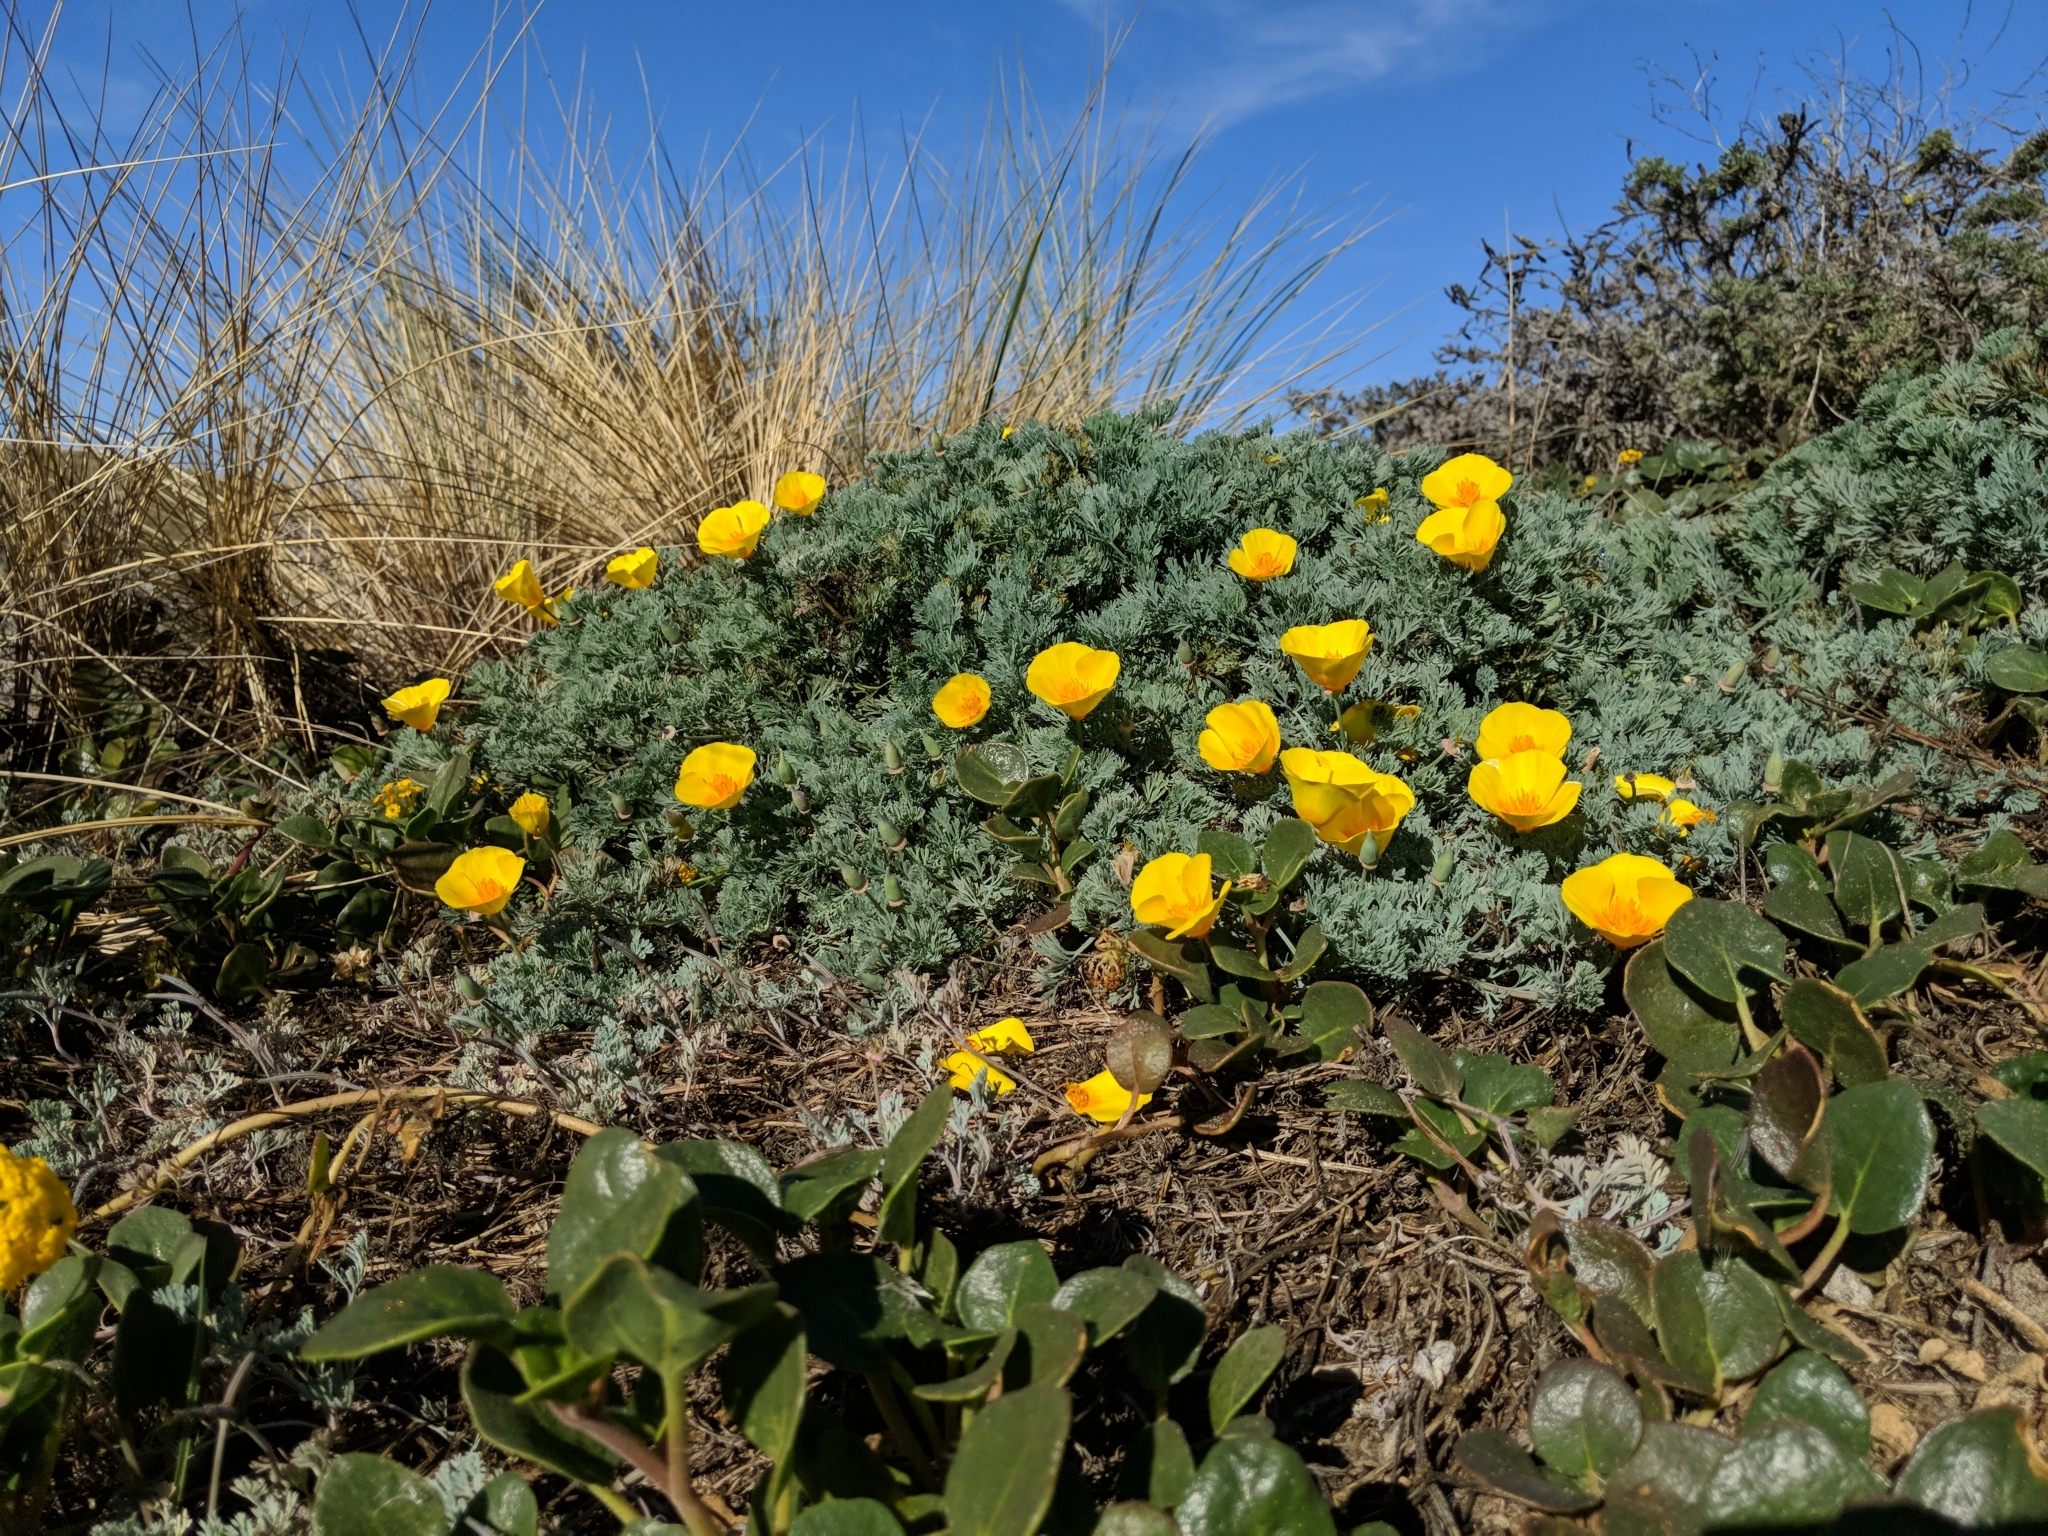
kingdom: Plantae
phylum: Tracheophyta
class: Magnoliopsida
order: Ranunculales
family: Papaveraceae
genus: Eschscholzia
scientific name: Eschscholzia californica
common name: California poppy
